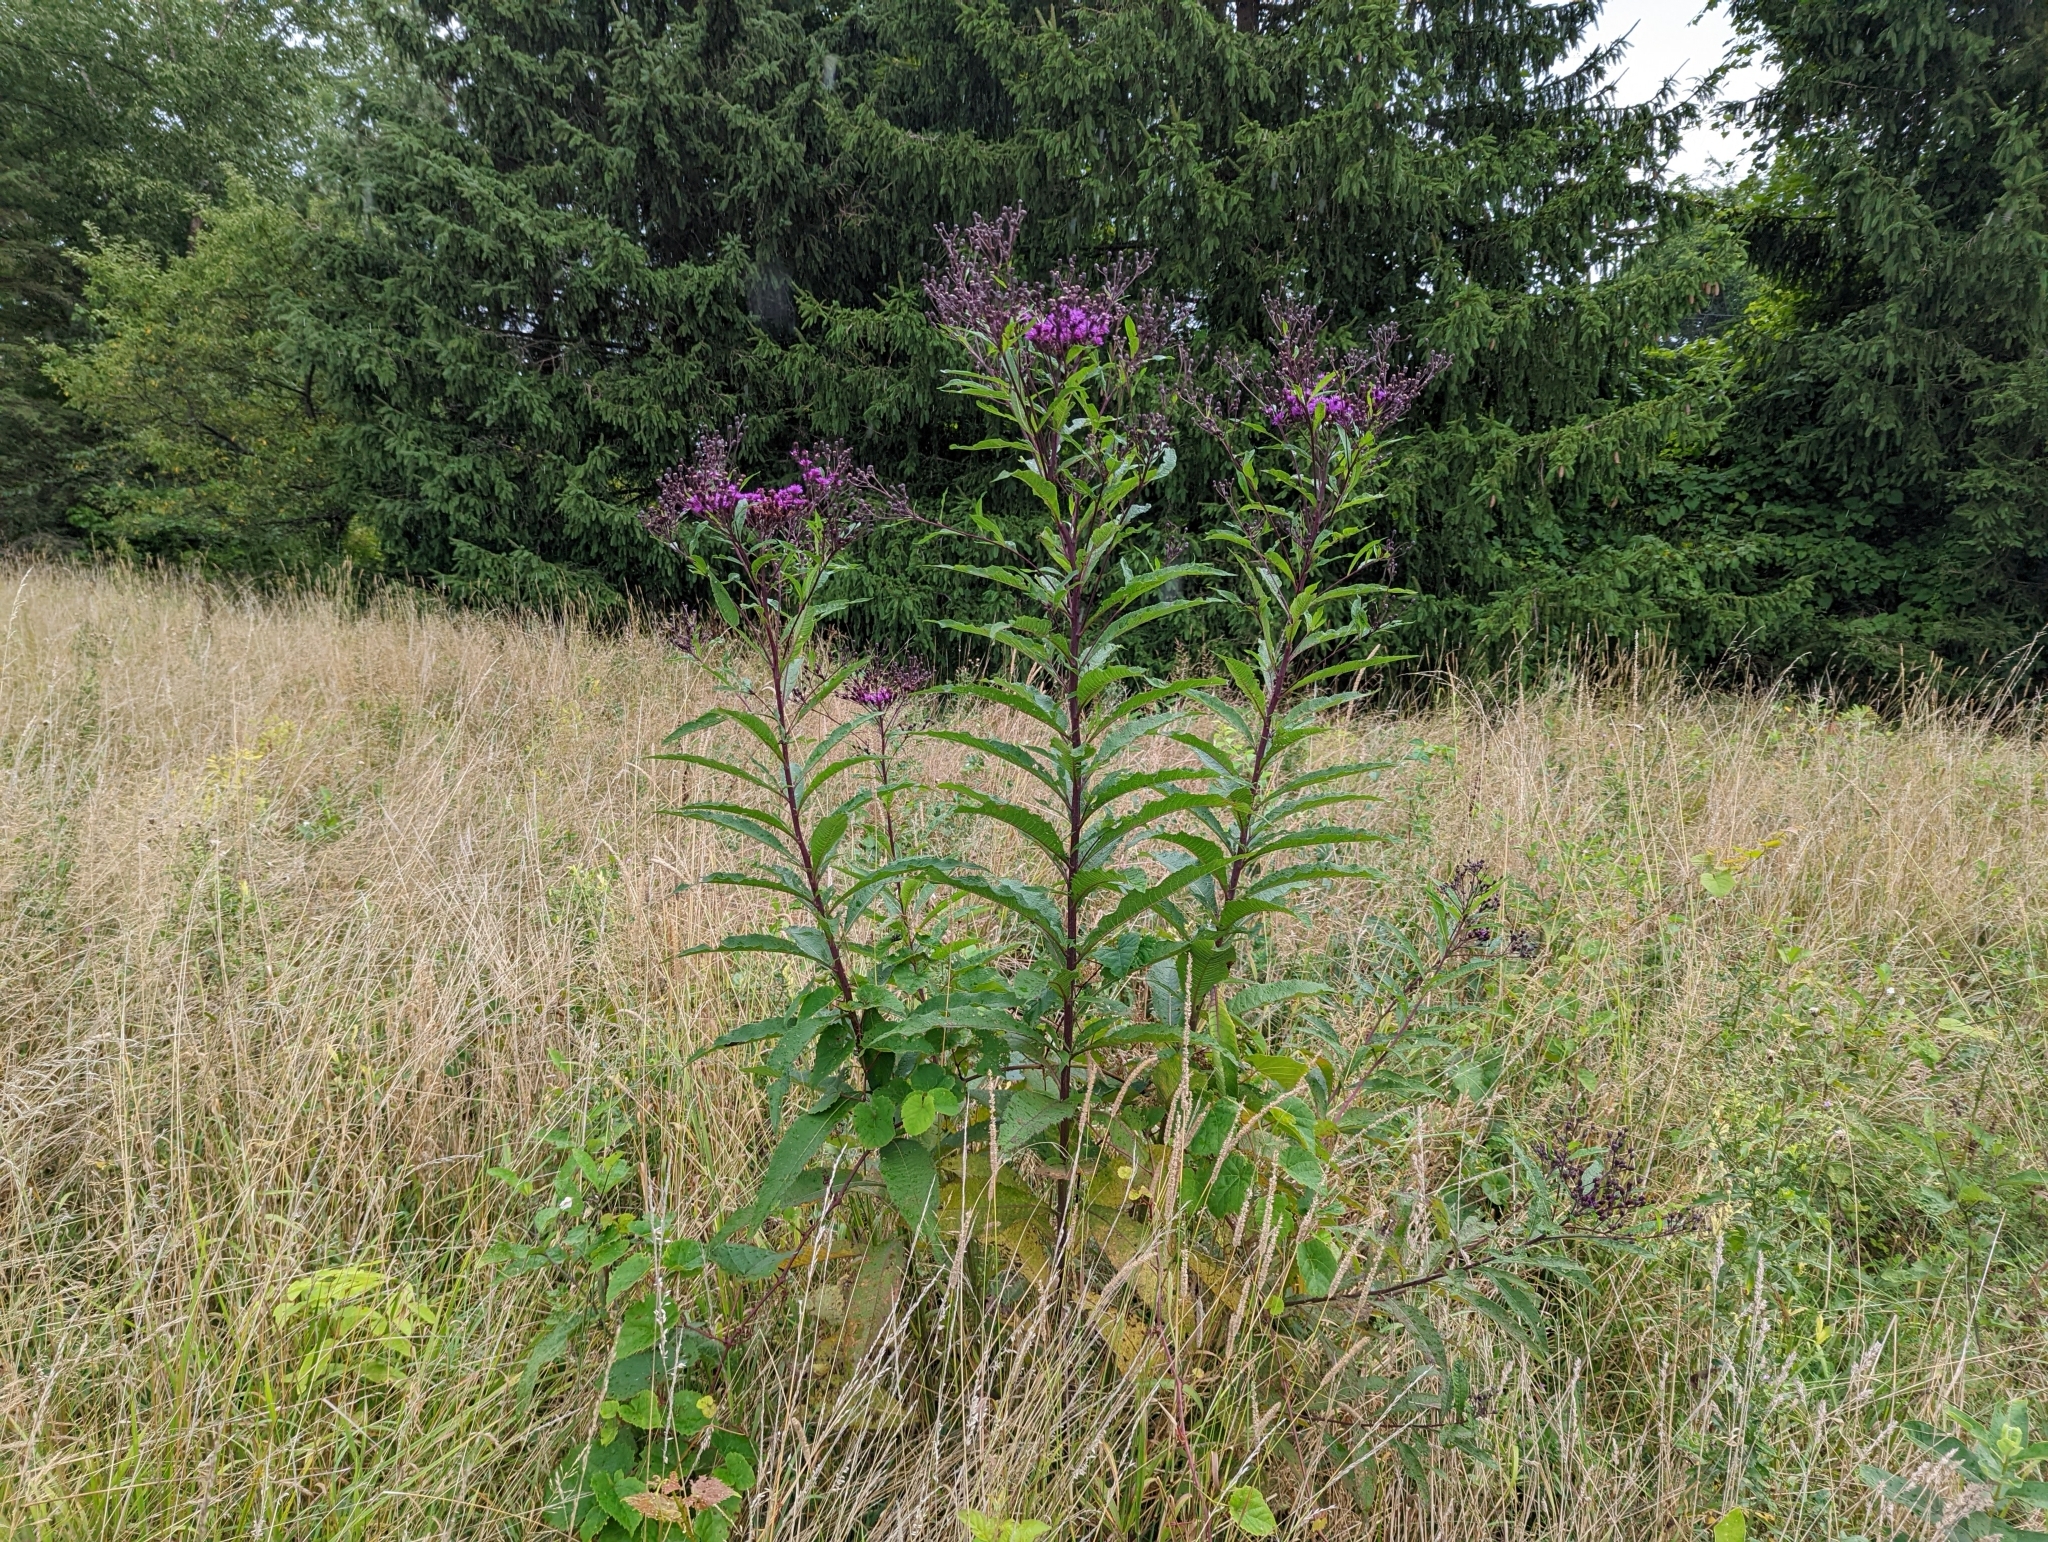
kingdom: Plantae
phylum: Tracheophyta
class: Magnoliopsida
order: Asterales
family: Asteraceae
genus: Vernonia
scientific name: Vernonia gigantea
